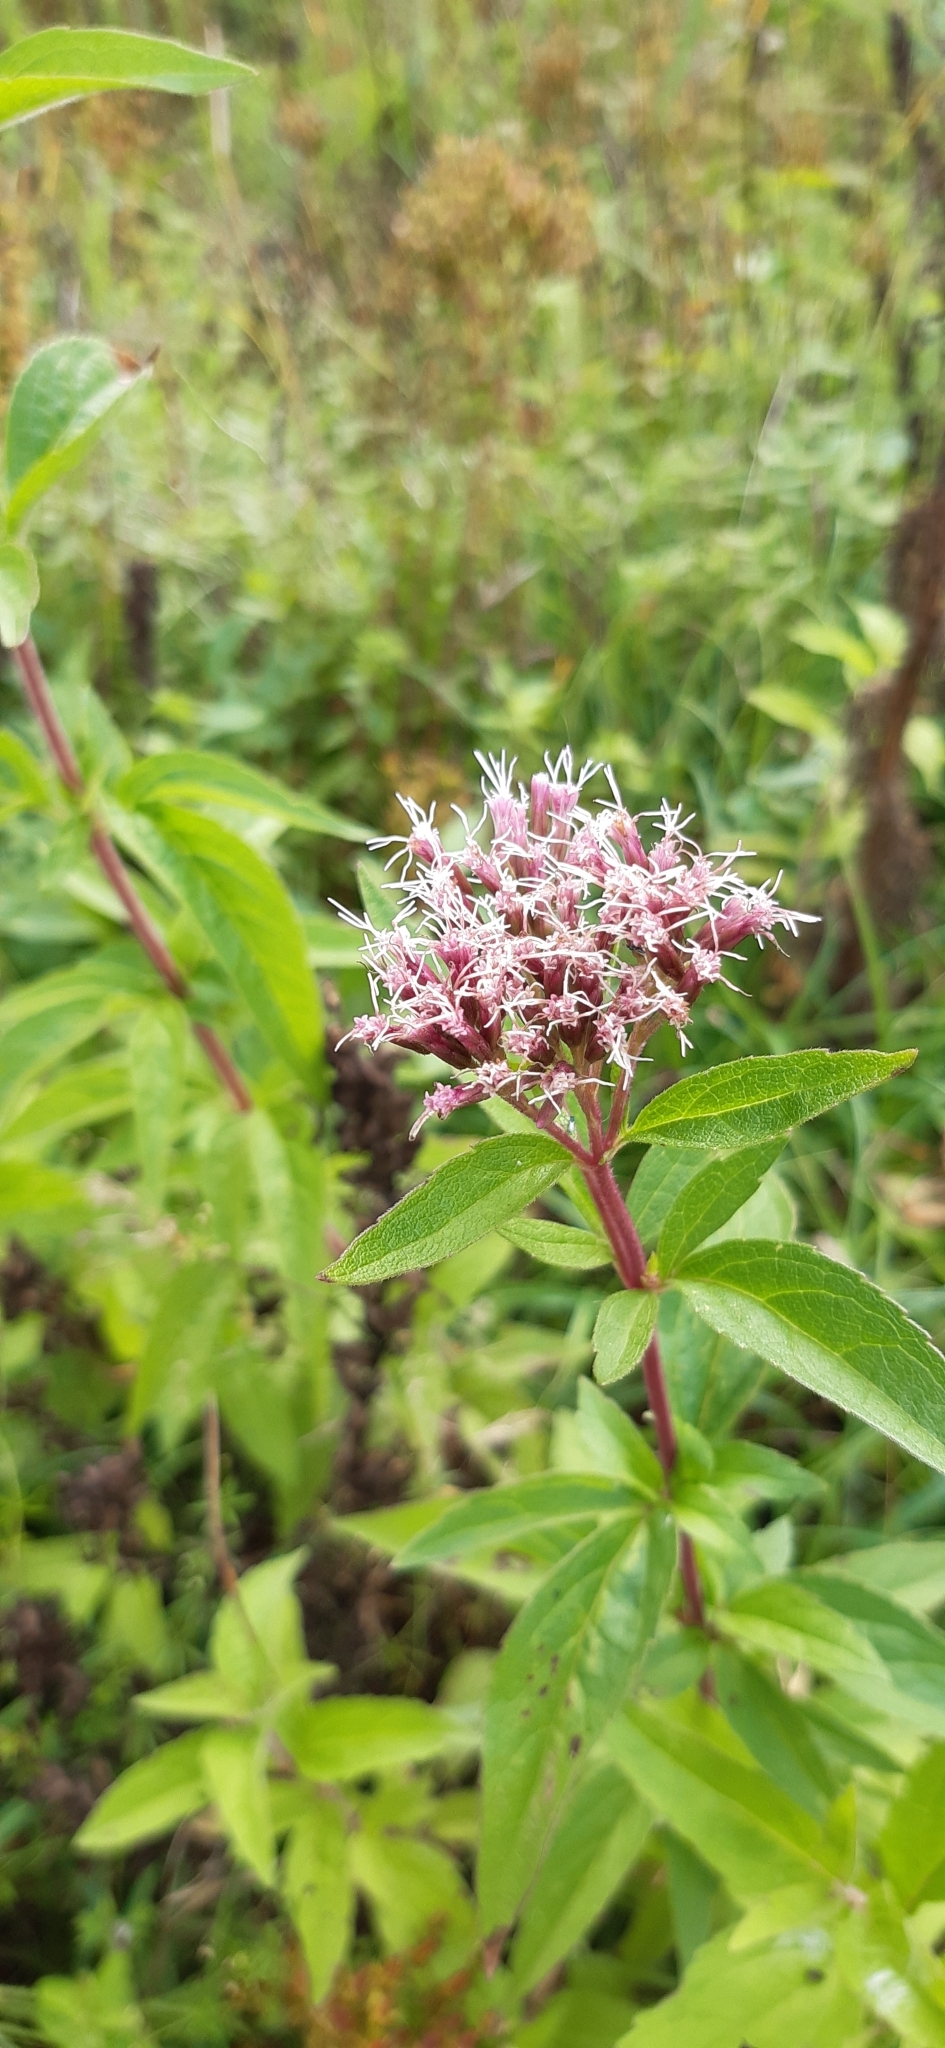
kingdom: Plantae
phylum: Tracheophyta
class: Magnoliopsida
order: Asterales
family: Asteraceae
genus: Eupatorium
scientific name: Eupatorium cannabinum
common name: Hemp-agrimony
